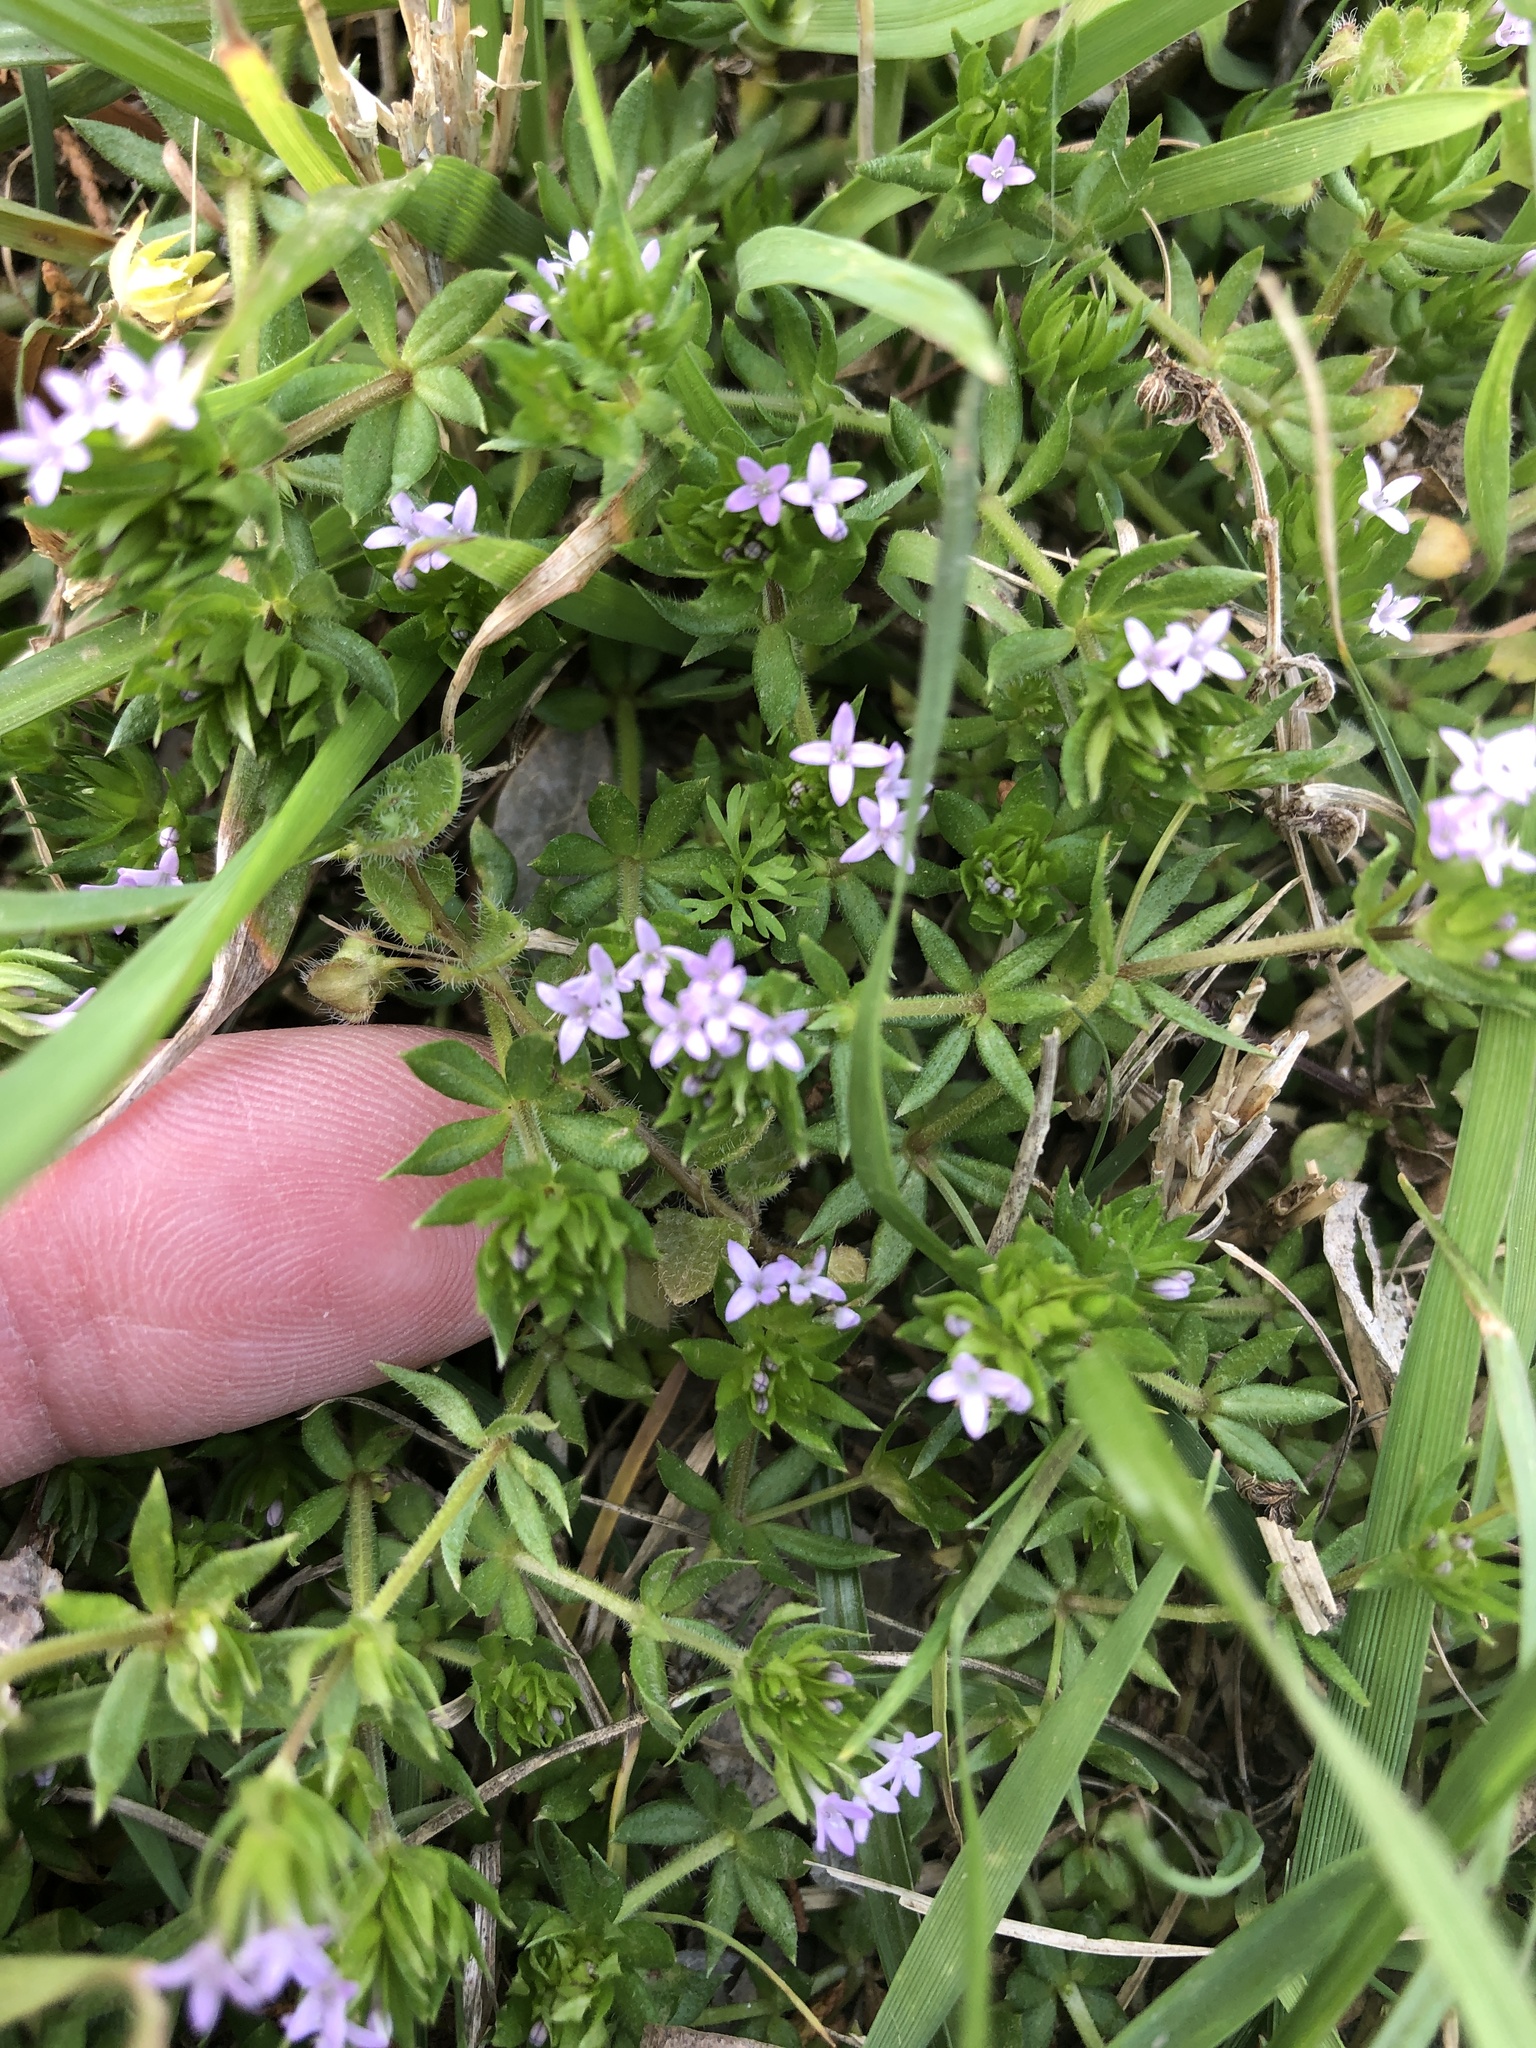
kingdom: Plantae
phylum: Tracheophyta
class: Magnoliopsida
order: Gentianales
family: Rubiaceae
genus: Sherardia
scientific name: Sherardia arvensis
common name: Field madder
